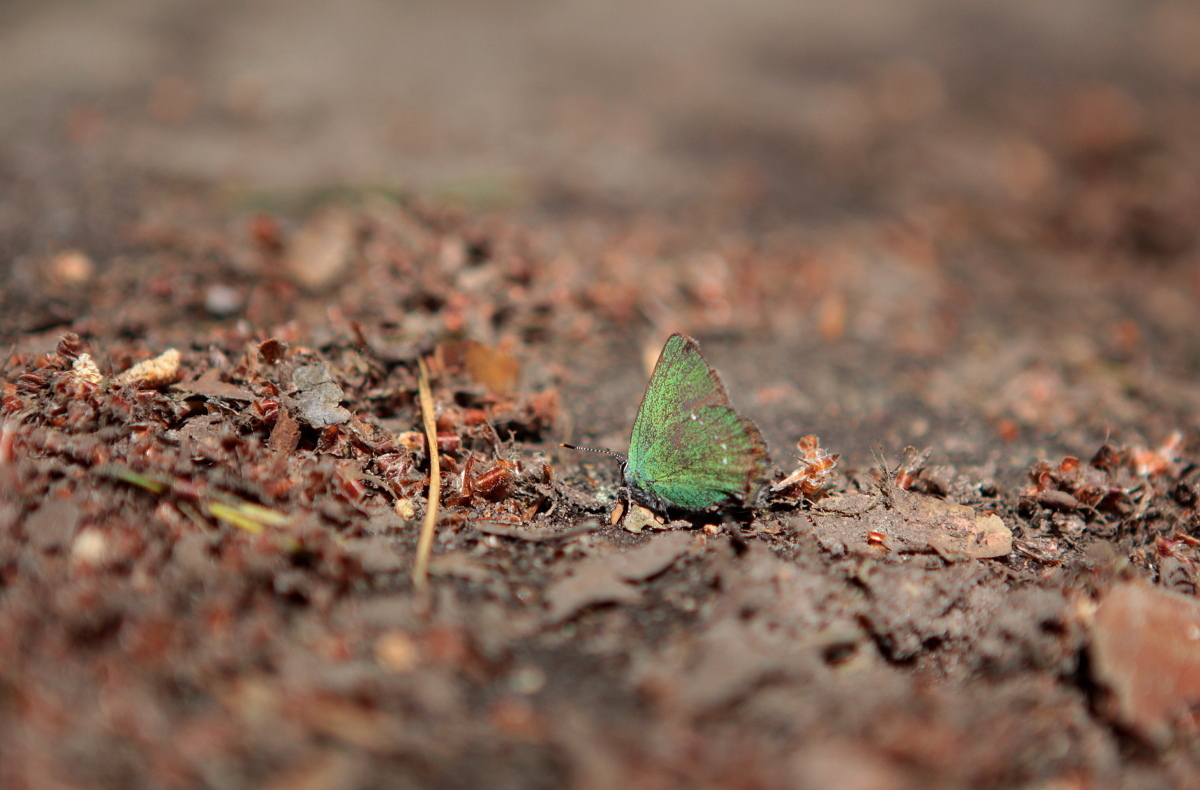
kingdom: Animalia
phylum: Arthropoda
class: Insecta
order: Lepidoptera
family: Lycaenidae
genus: Callophrys
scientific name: Callophrys rubi
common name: Green hairstreak
